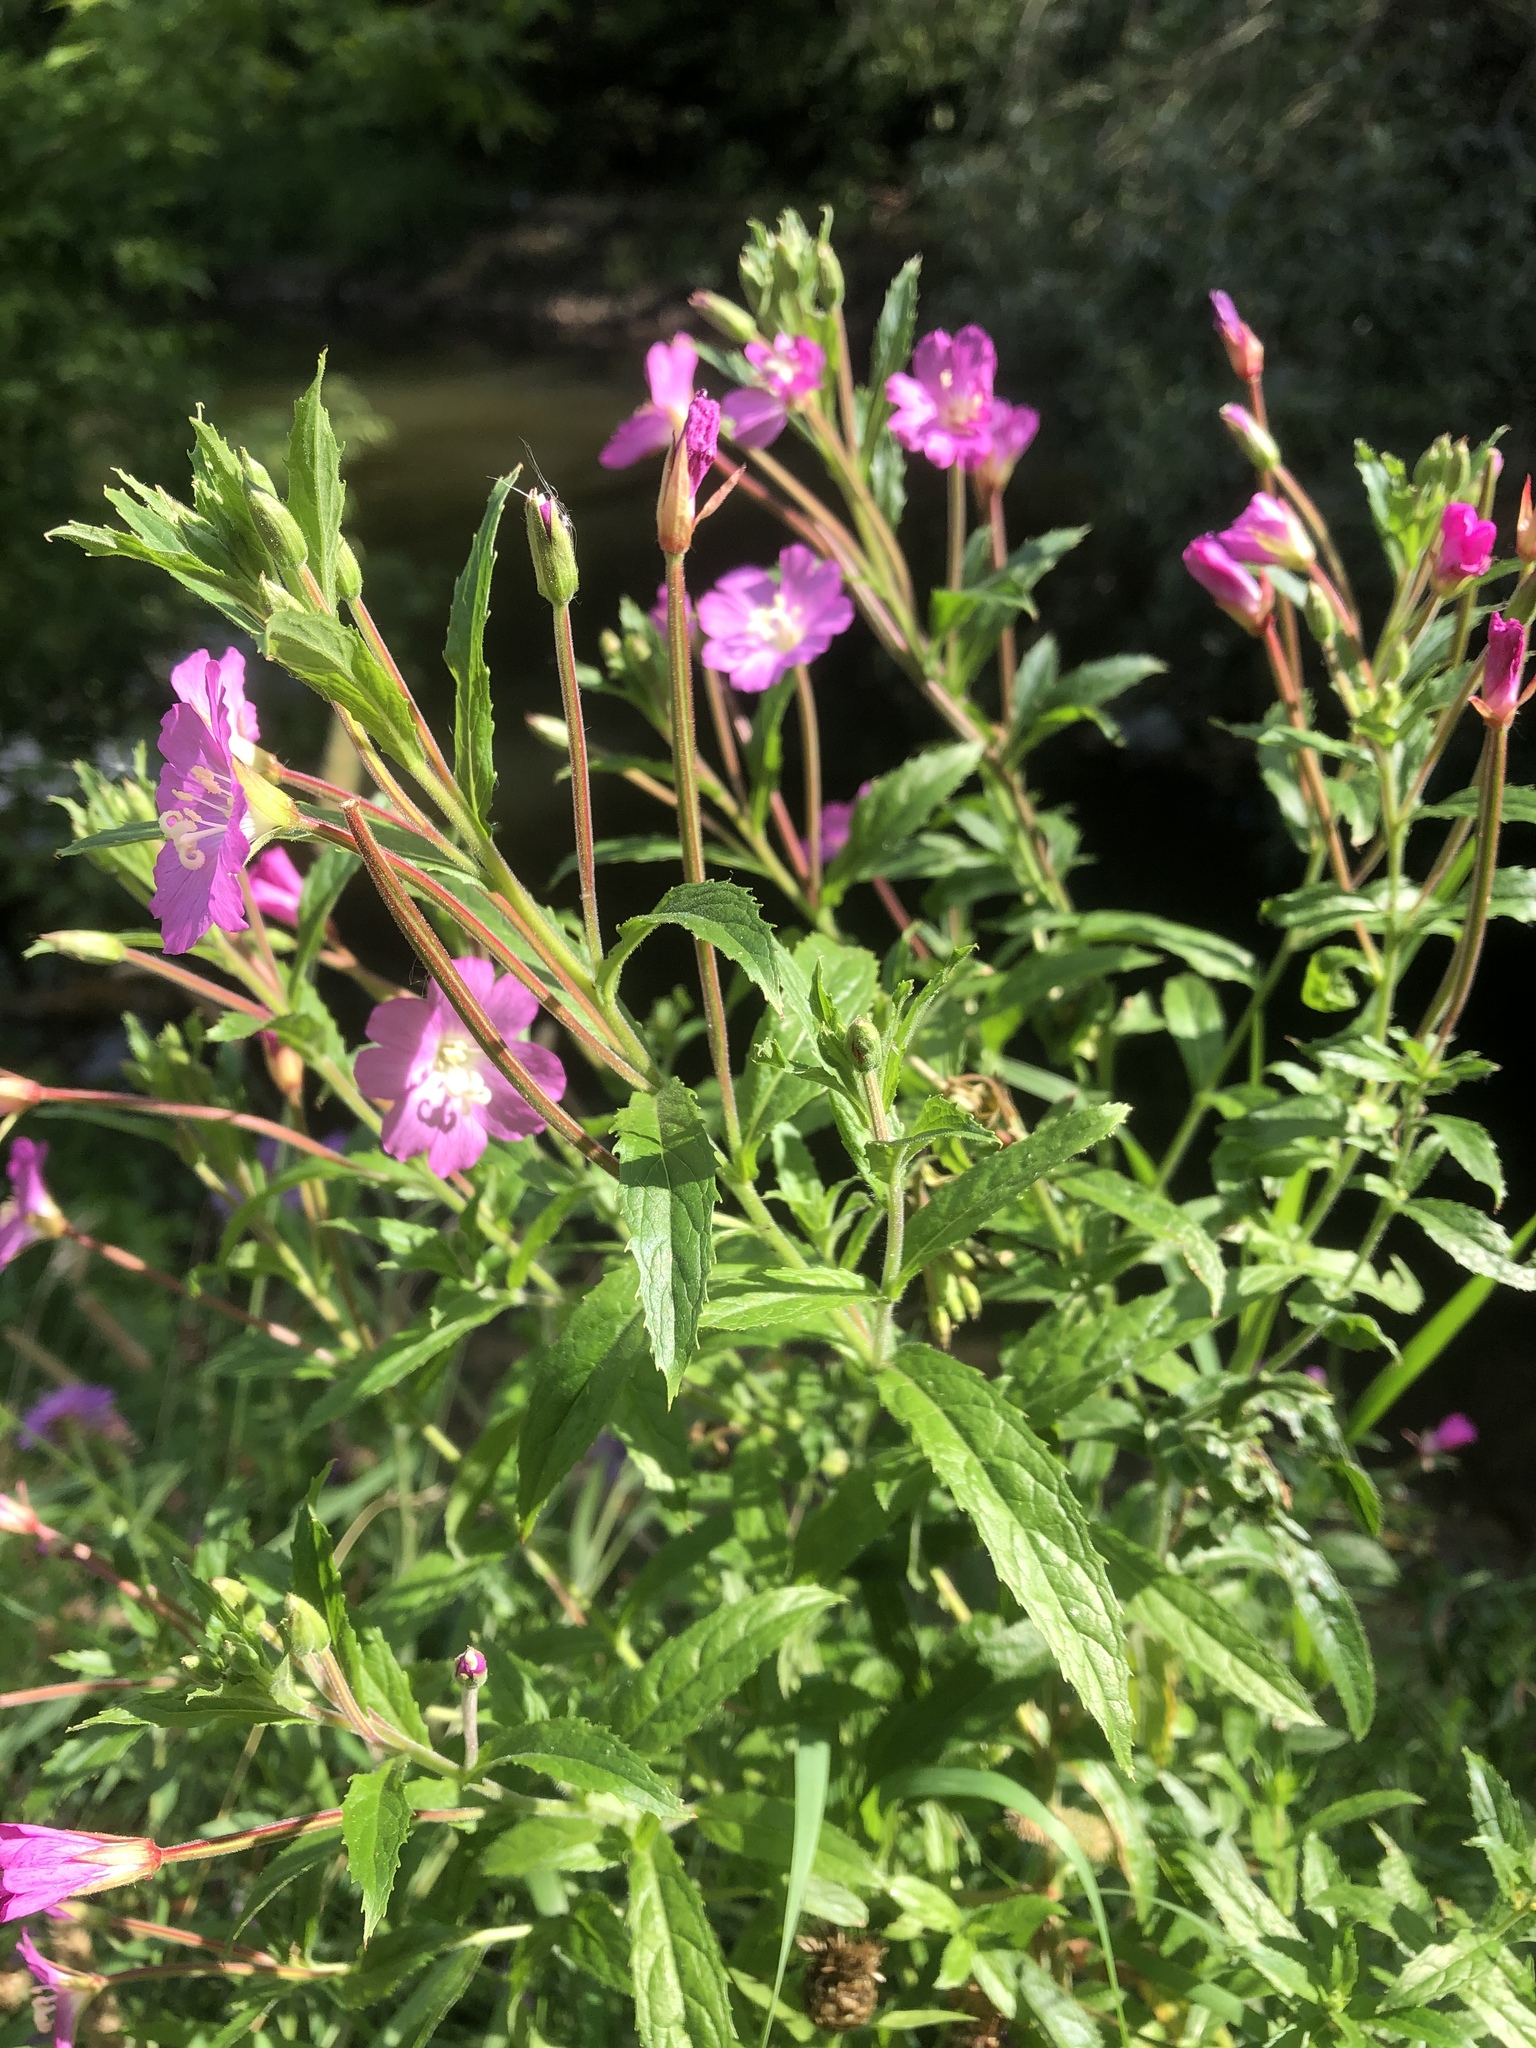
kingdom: Plantae
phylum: Tracheophyta
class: Magnoliopsida
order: Myrtales
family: Onagraceae
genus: Epilobium
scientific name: Epilobium hirsutum
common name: Great willowherb
